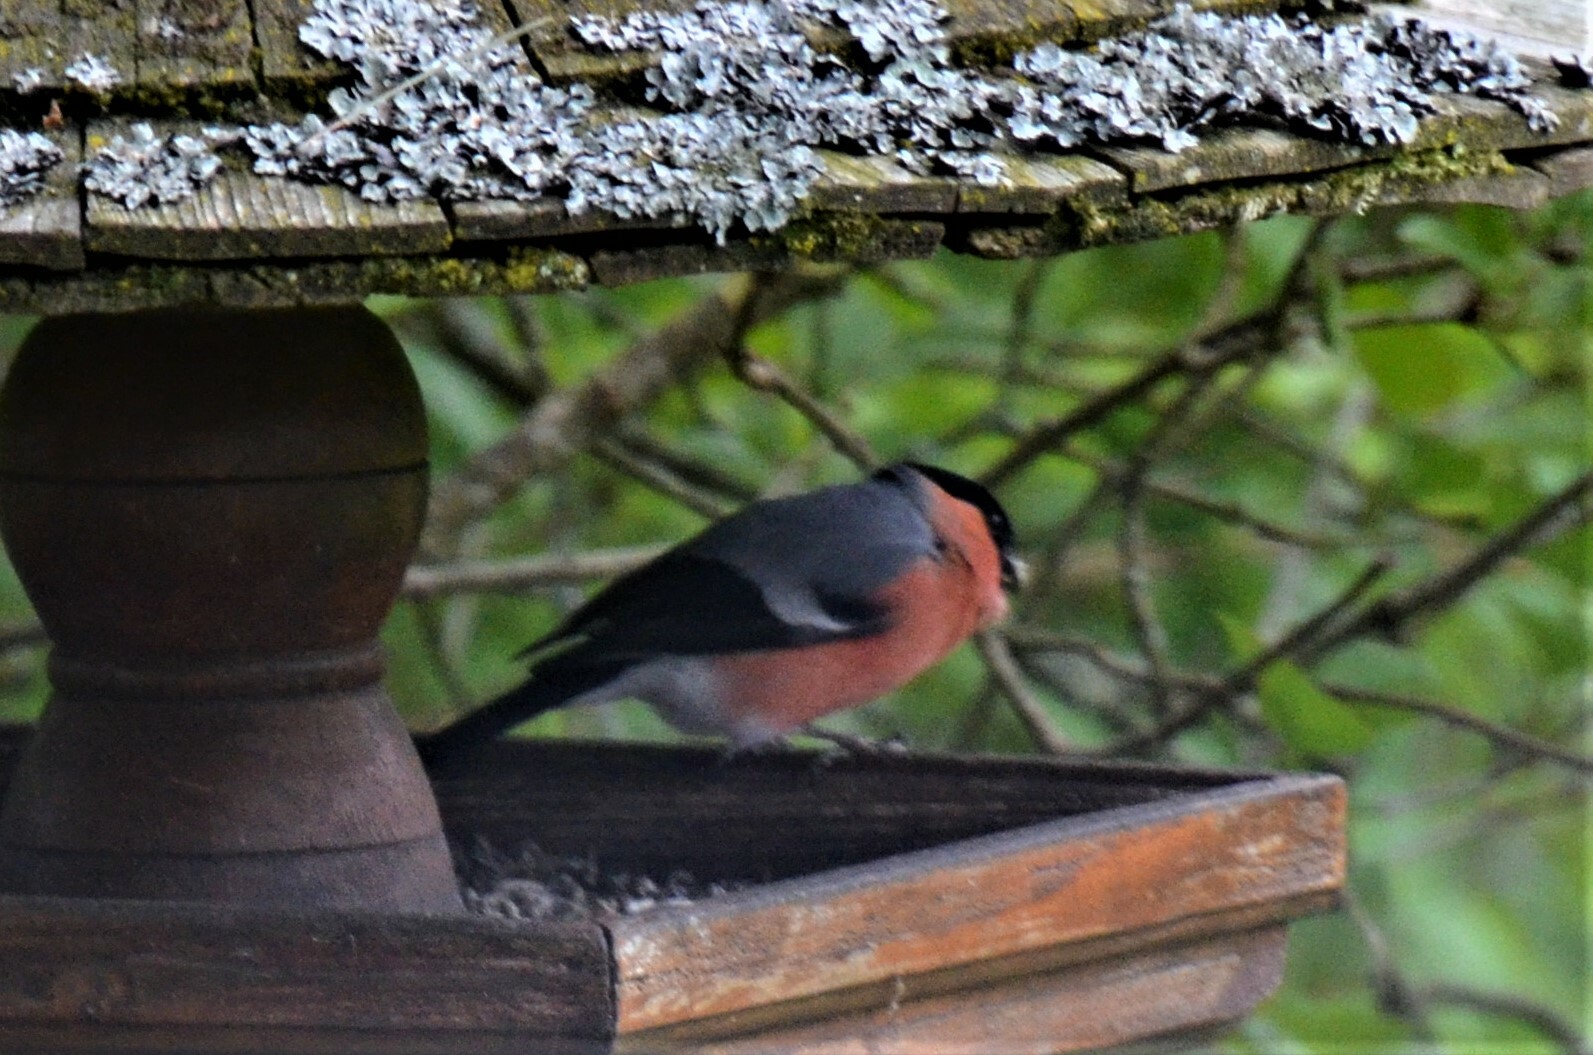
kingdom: Animalia
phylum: Chordata
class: Aves
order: Passeriformes
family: Fringillidae
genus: Pyrrhula
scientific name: Pyrrhula pyrrhula
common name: Eurasian bullfinch
